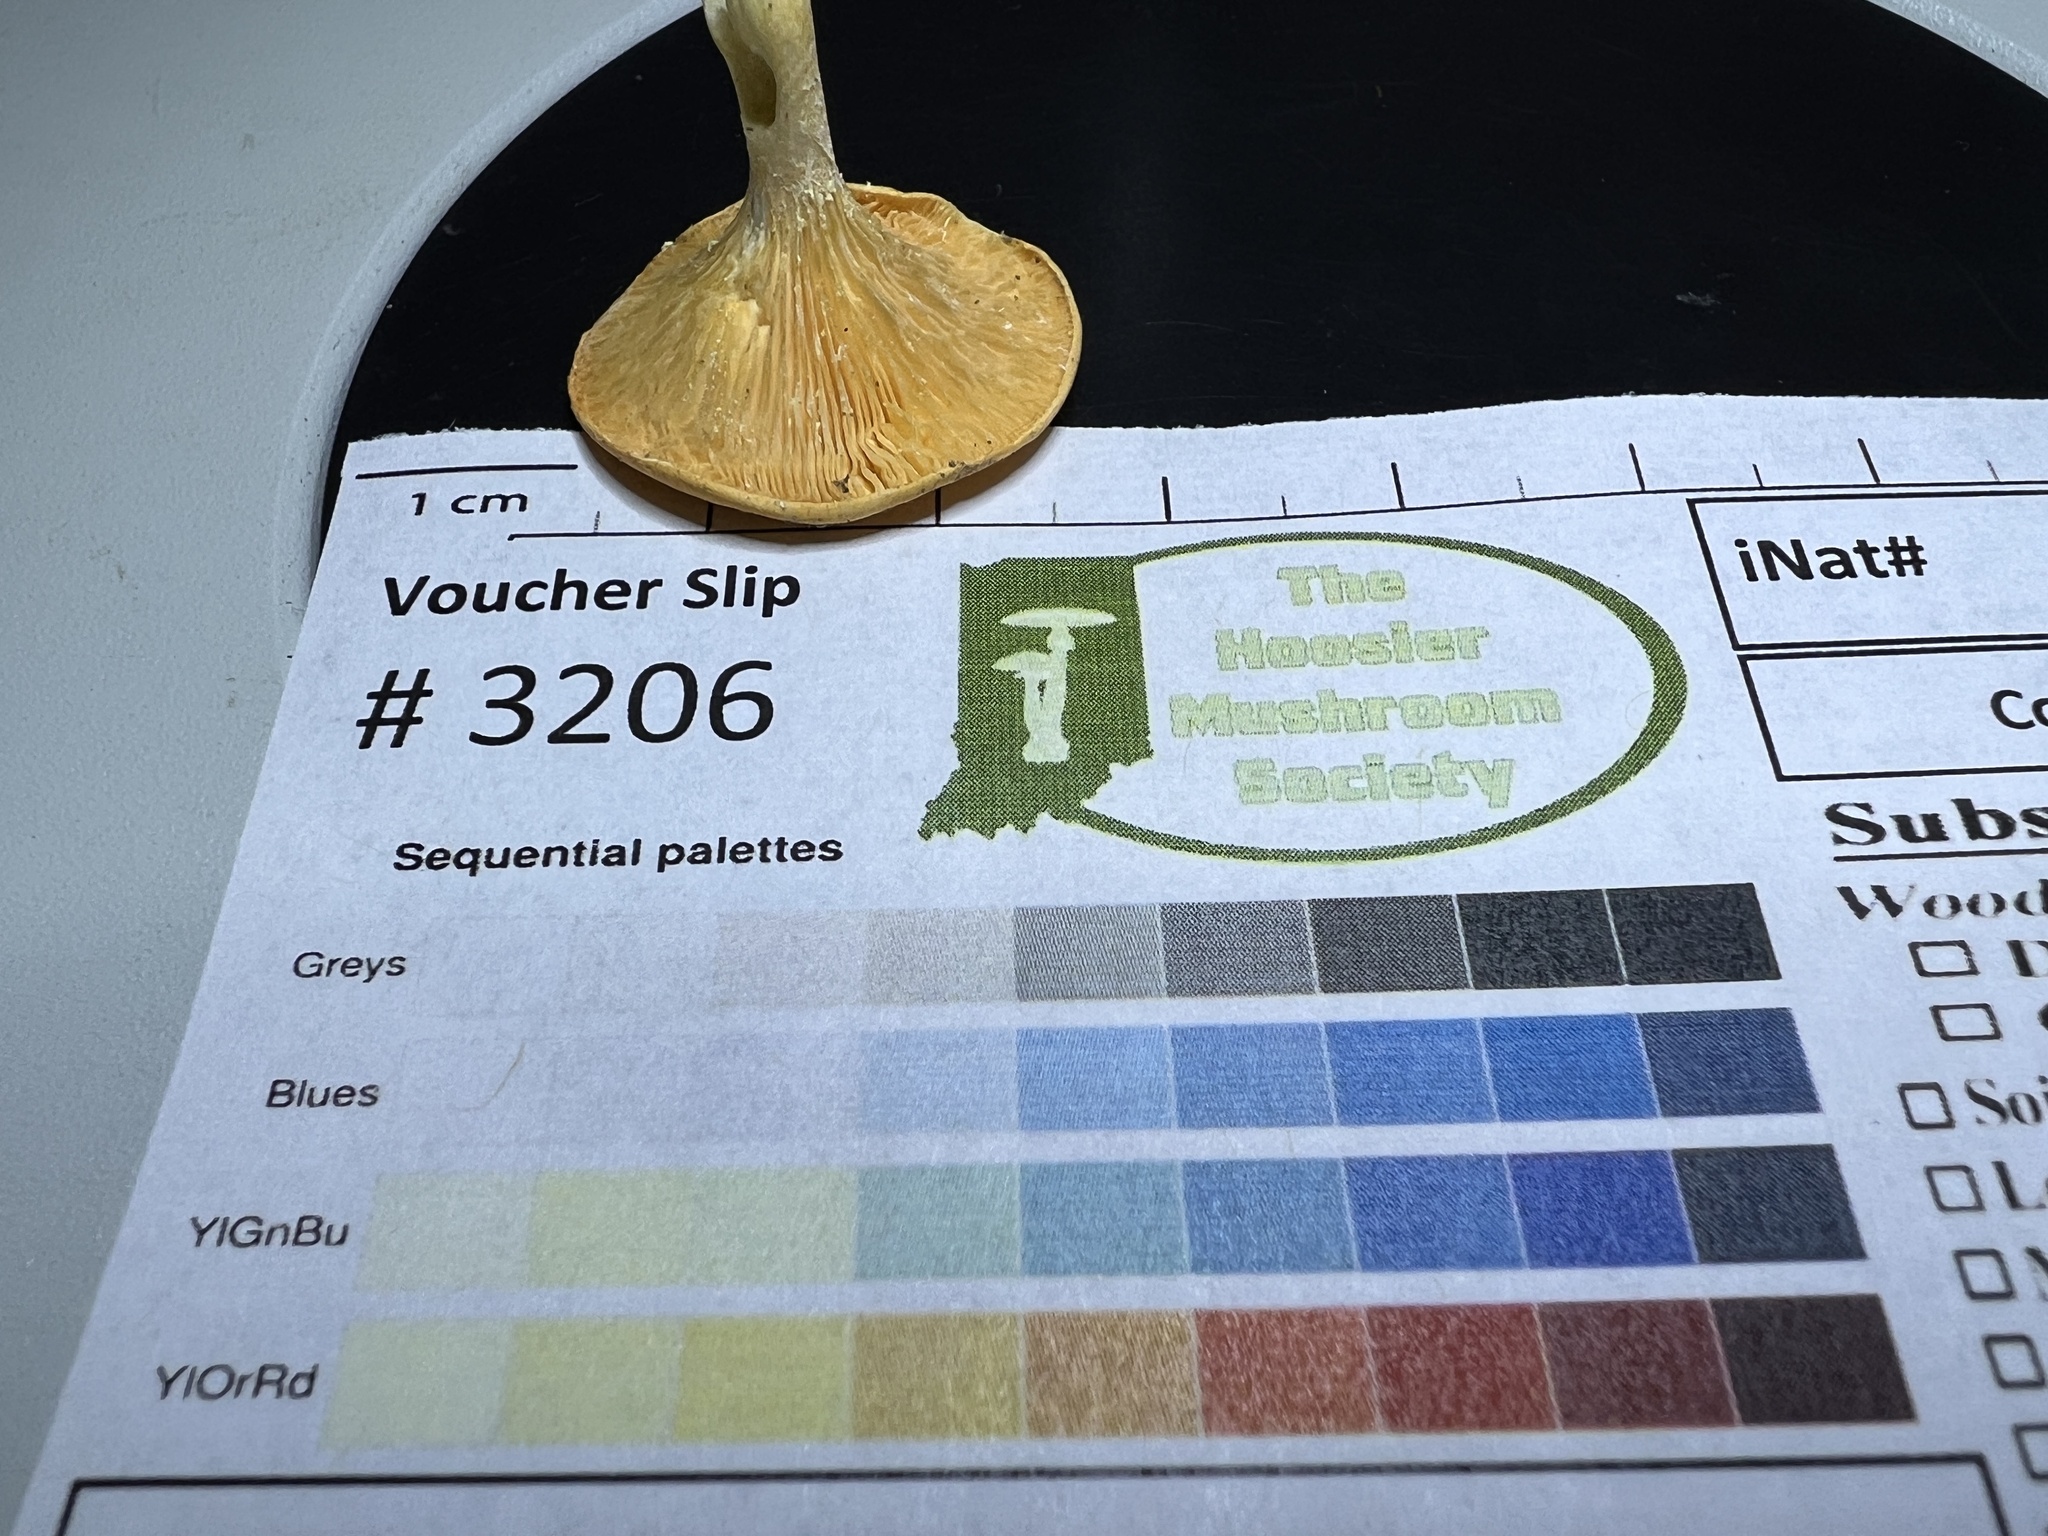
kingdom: Fungi
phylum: Basidiomycota
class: Agaricomycetes
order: Boletales
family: Hygrophoropsidaceae
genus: Hygrophoropsis
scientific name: Hygrophoropsis aurantiaca
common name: False chanterelle
